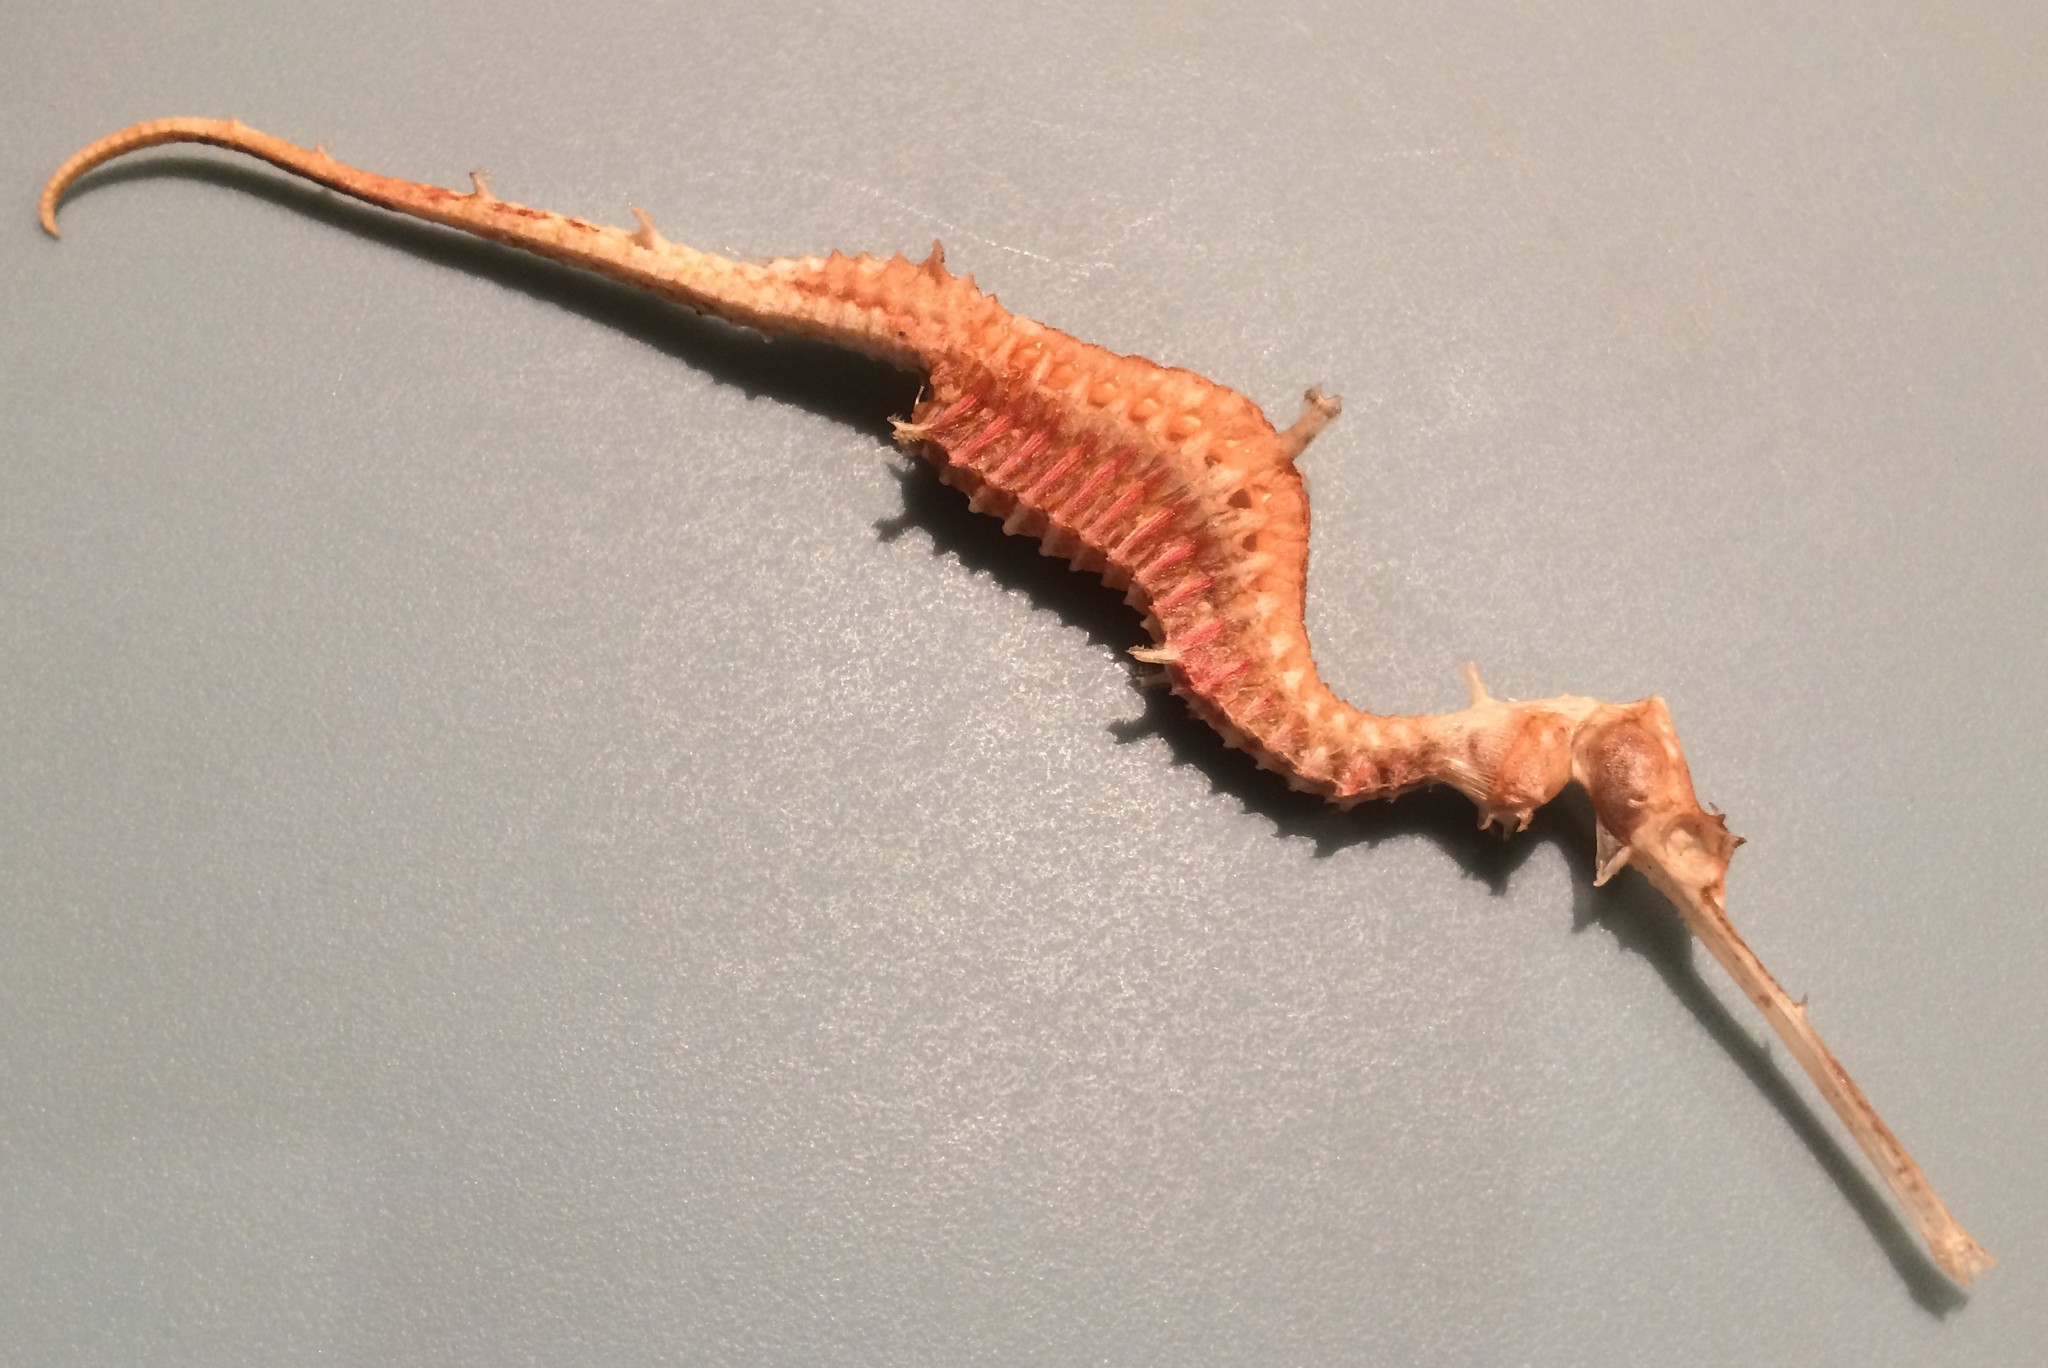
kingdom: Animalia
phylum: Chordata
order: Syngnathiformes
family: Syngnathidae
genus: Phyllopteryx
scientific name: Phyllopteryx dewysea
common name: Ruby seadragon
